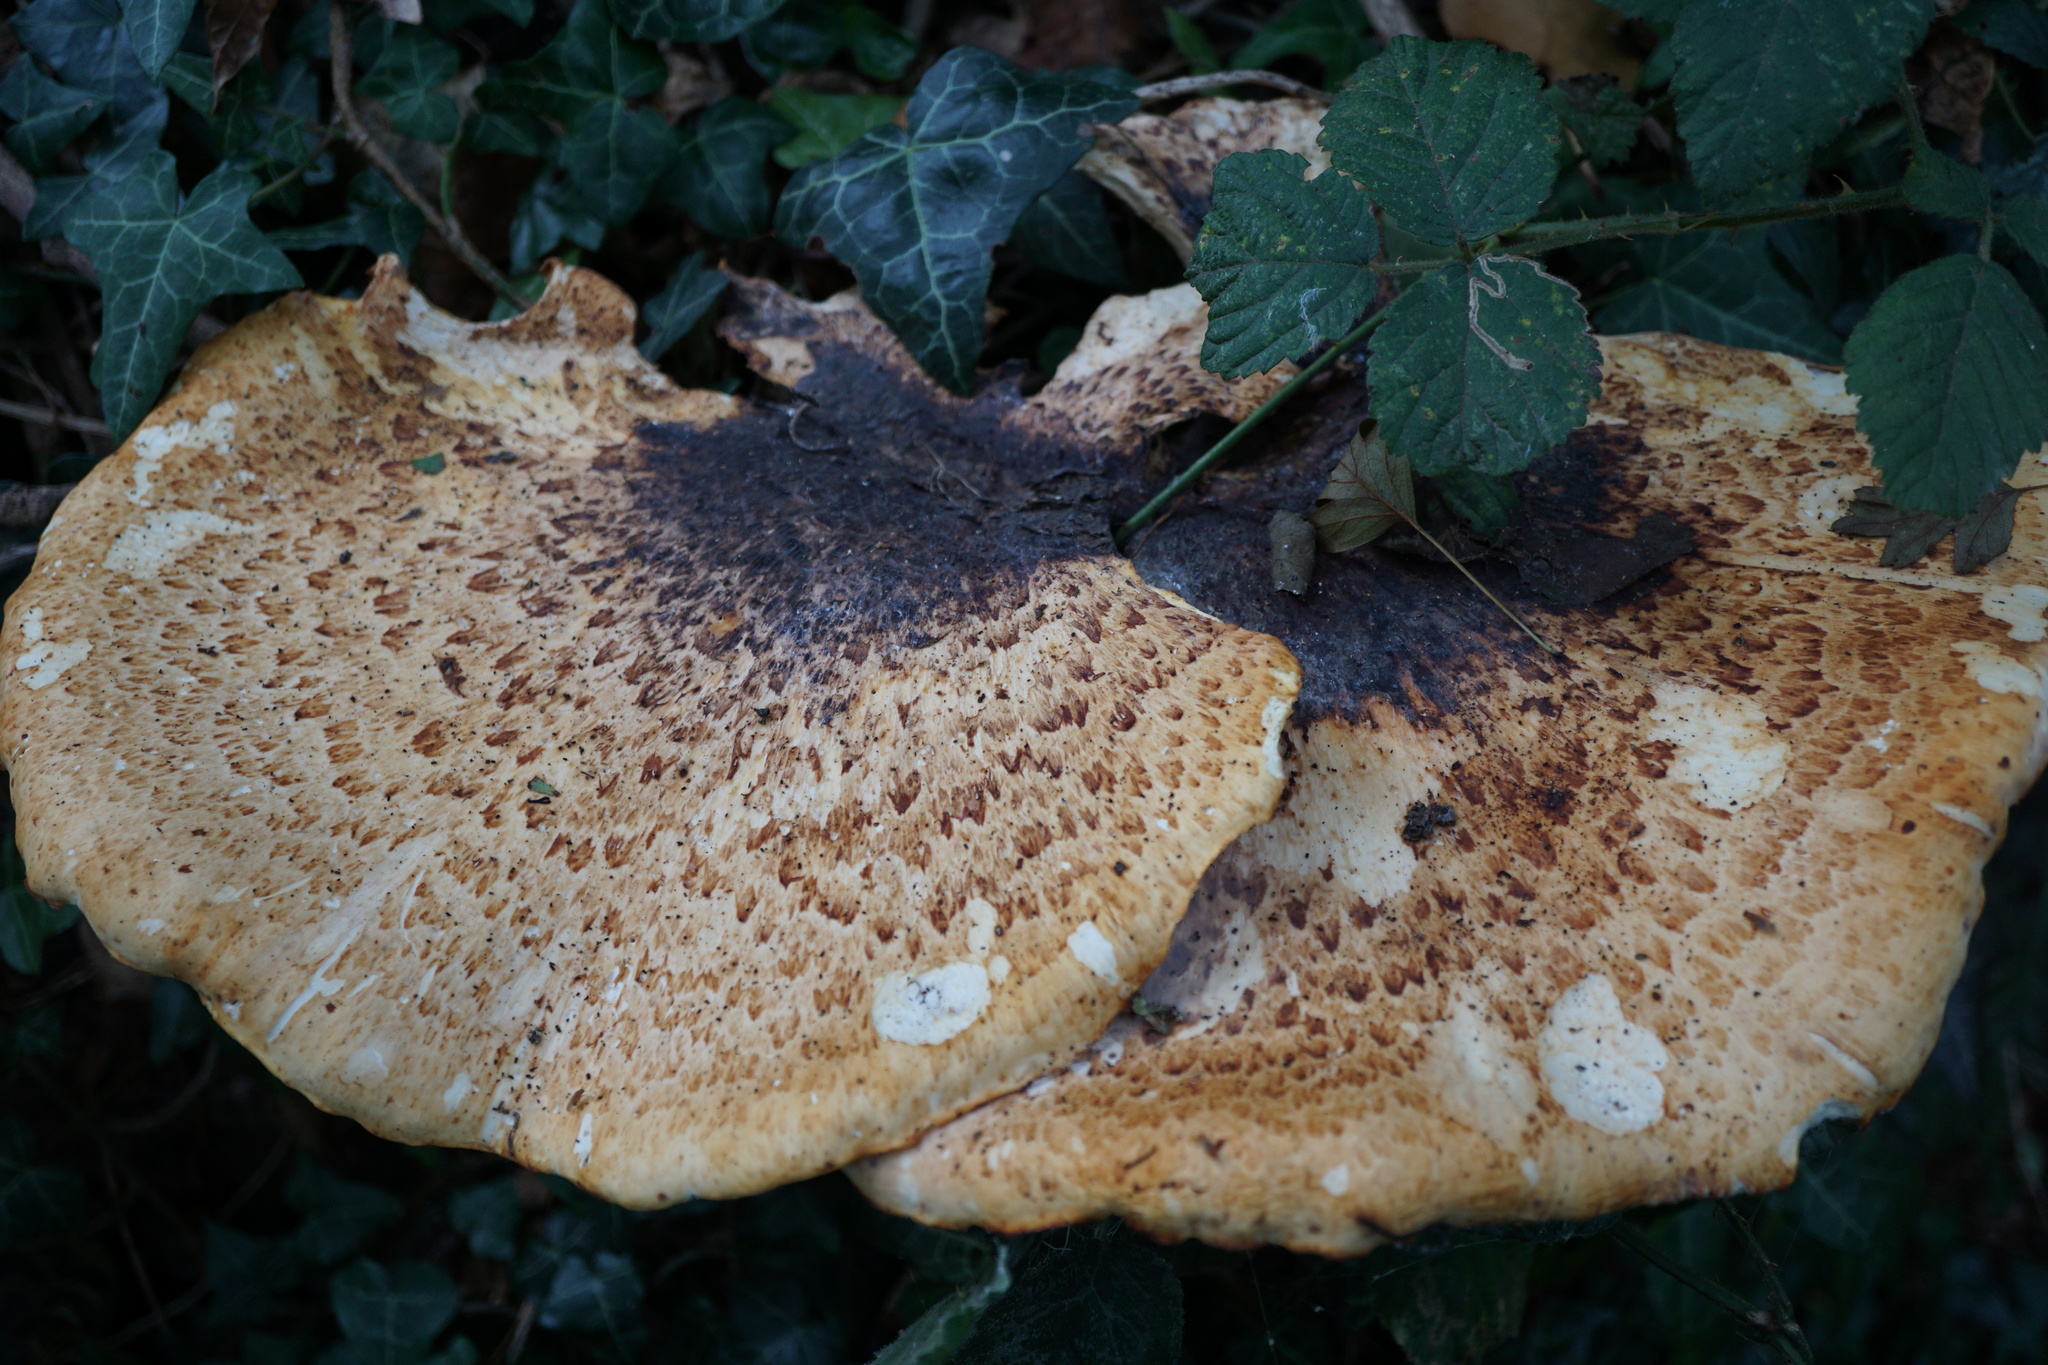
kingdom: Fungi
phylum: Basidiomycota
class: Agaricomycetes
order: Polyporales
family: Polyporaceae
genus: Cerioporus
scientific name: Cerioporus squamosus
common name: Dryad's saddle
